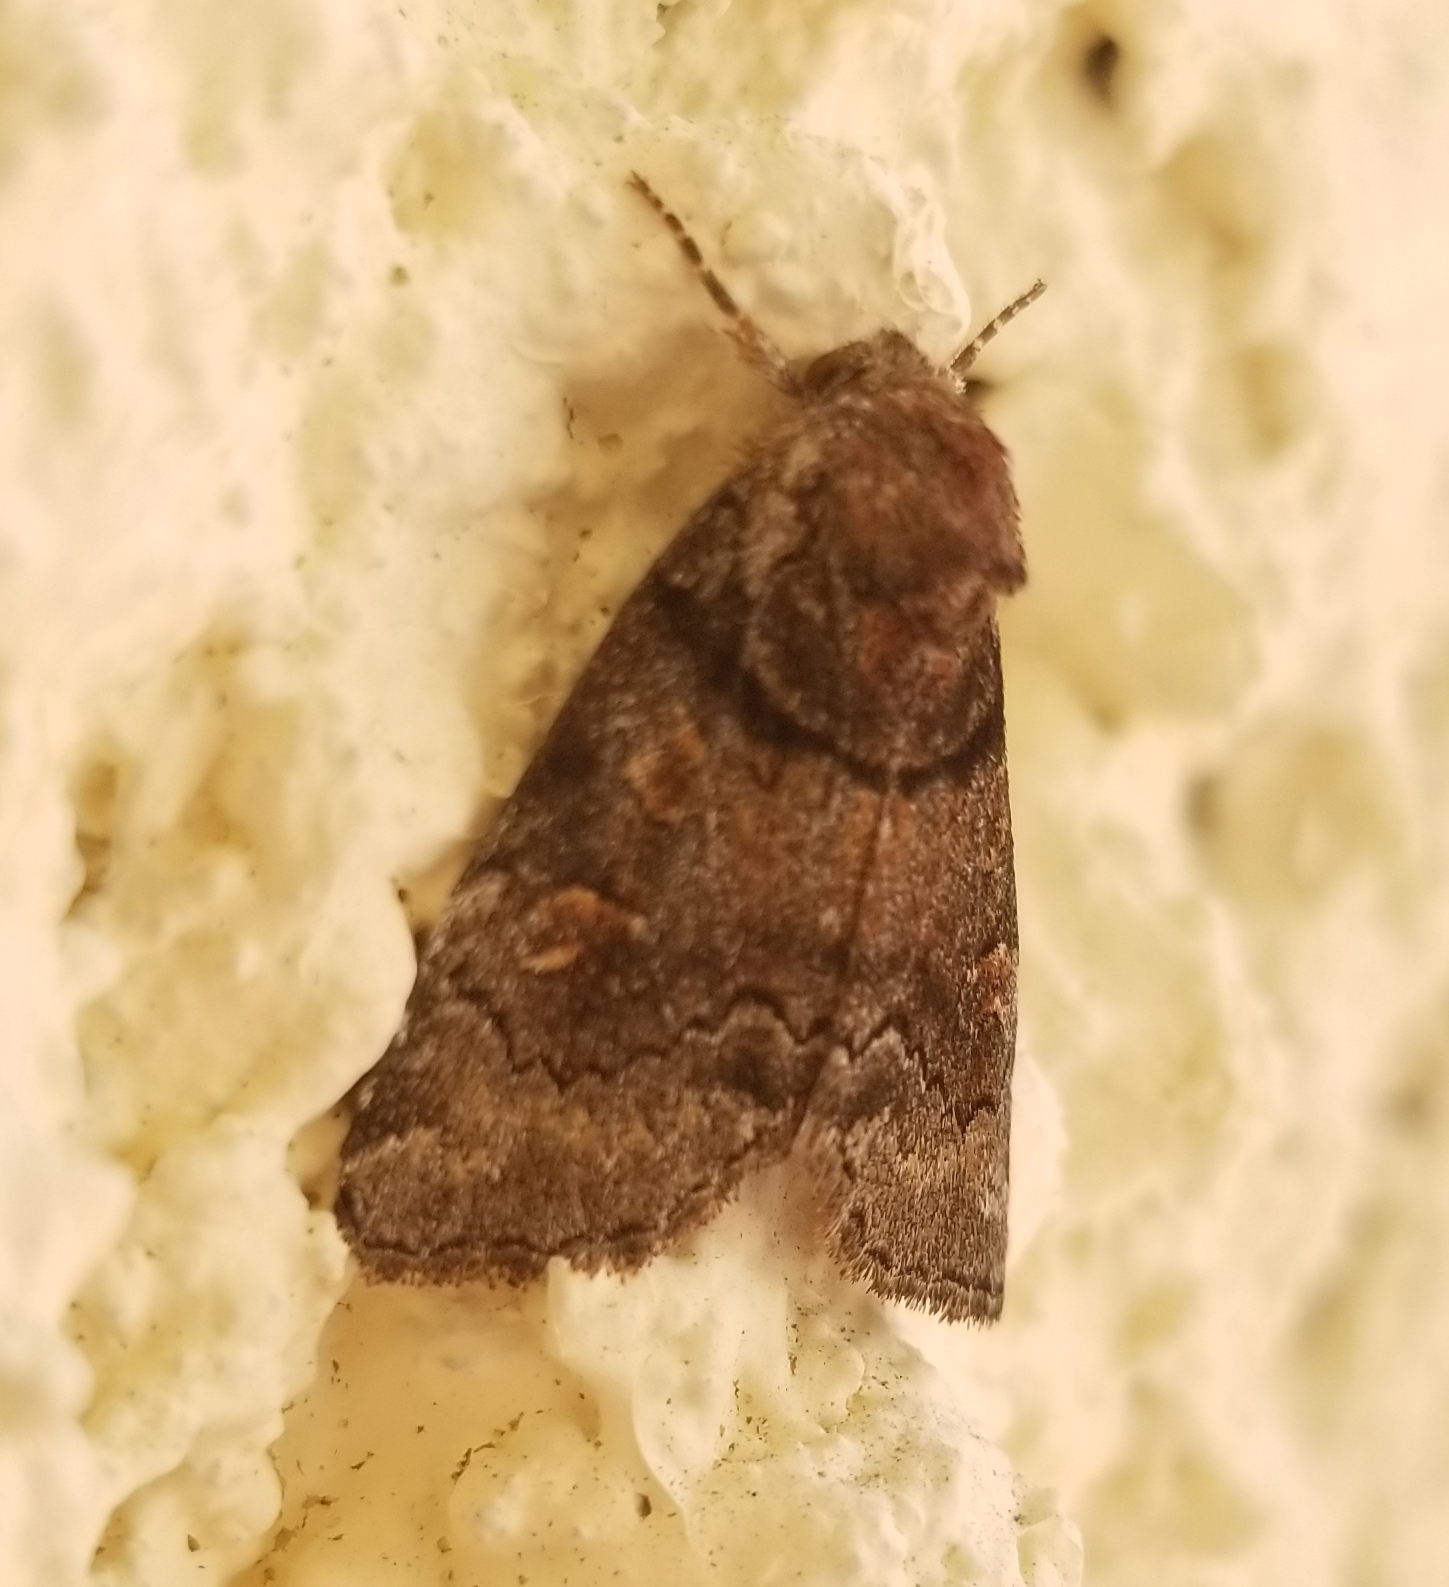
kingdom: Animalia
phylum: Arthropoda
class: Insecta
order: Lepidoptera
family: Noctuidae
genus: Cosmia
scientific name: Cosmia praeacuta
